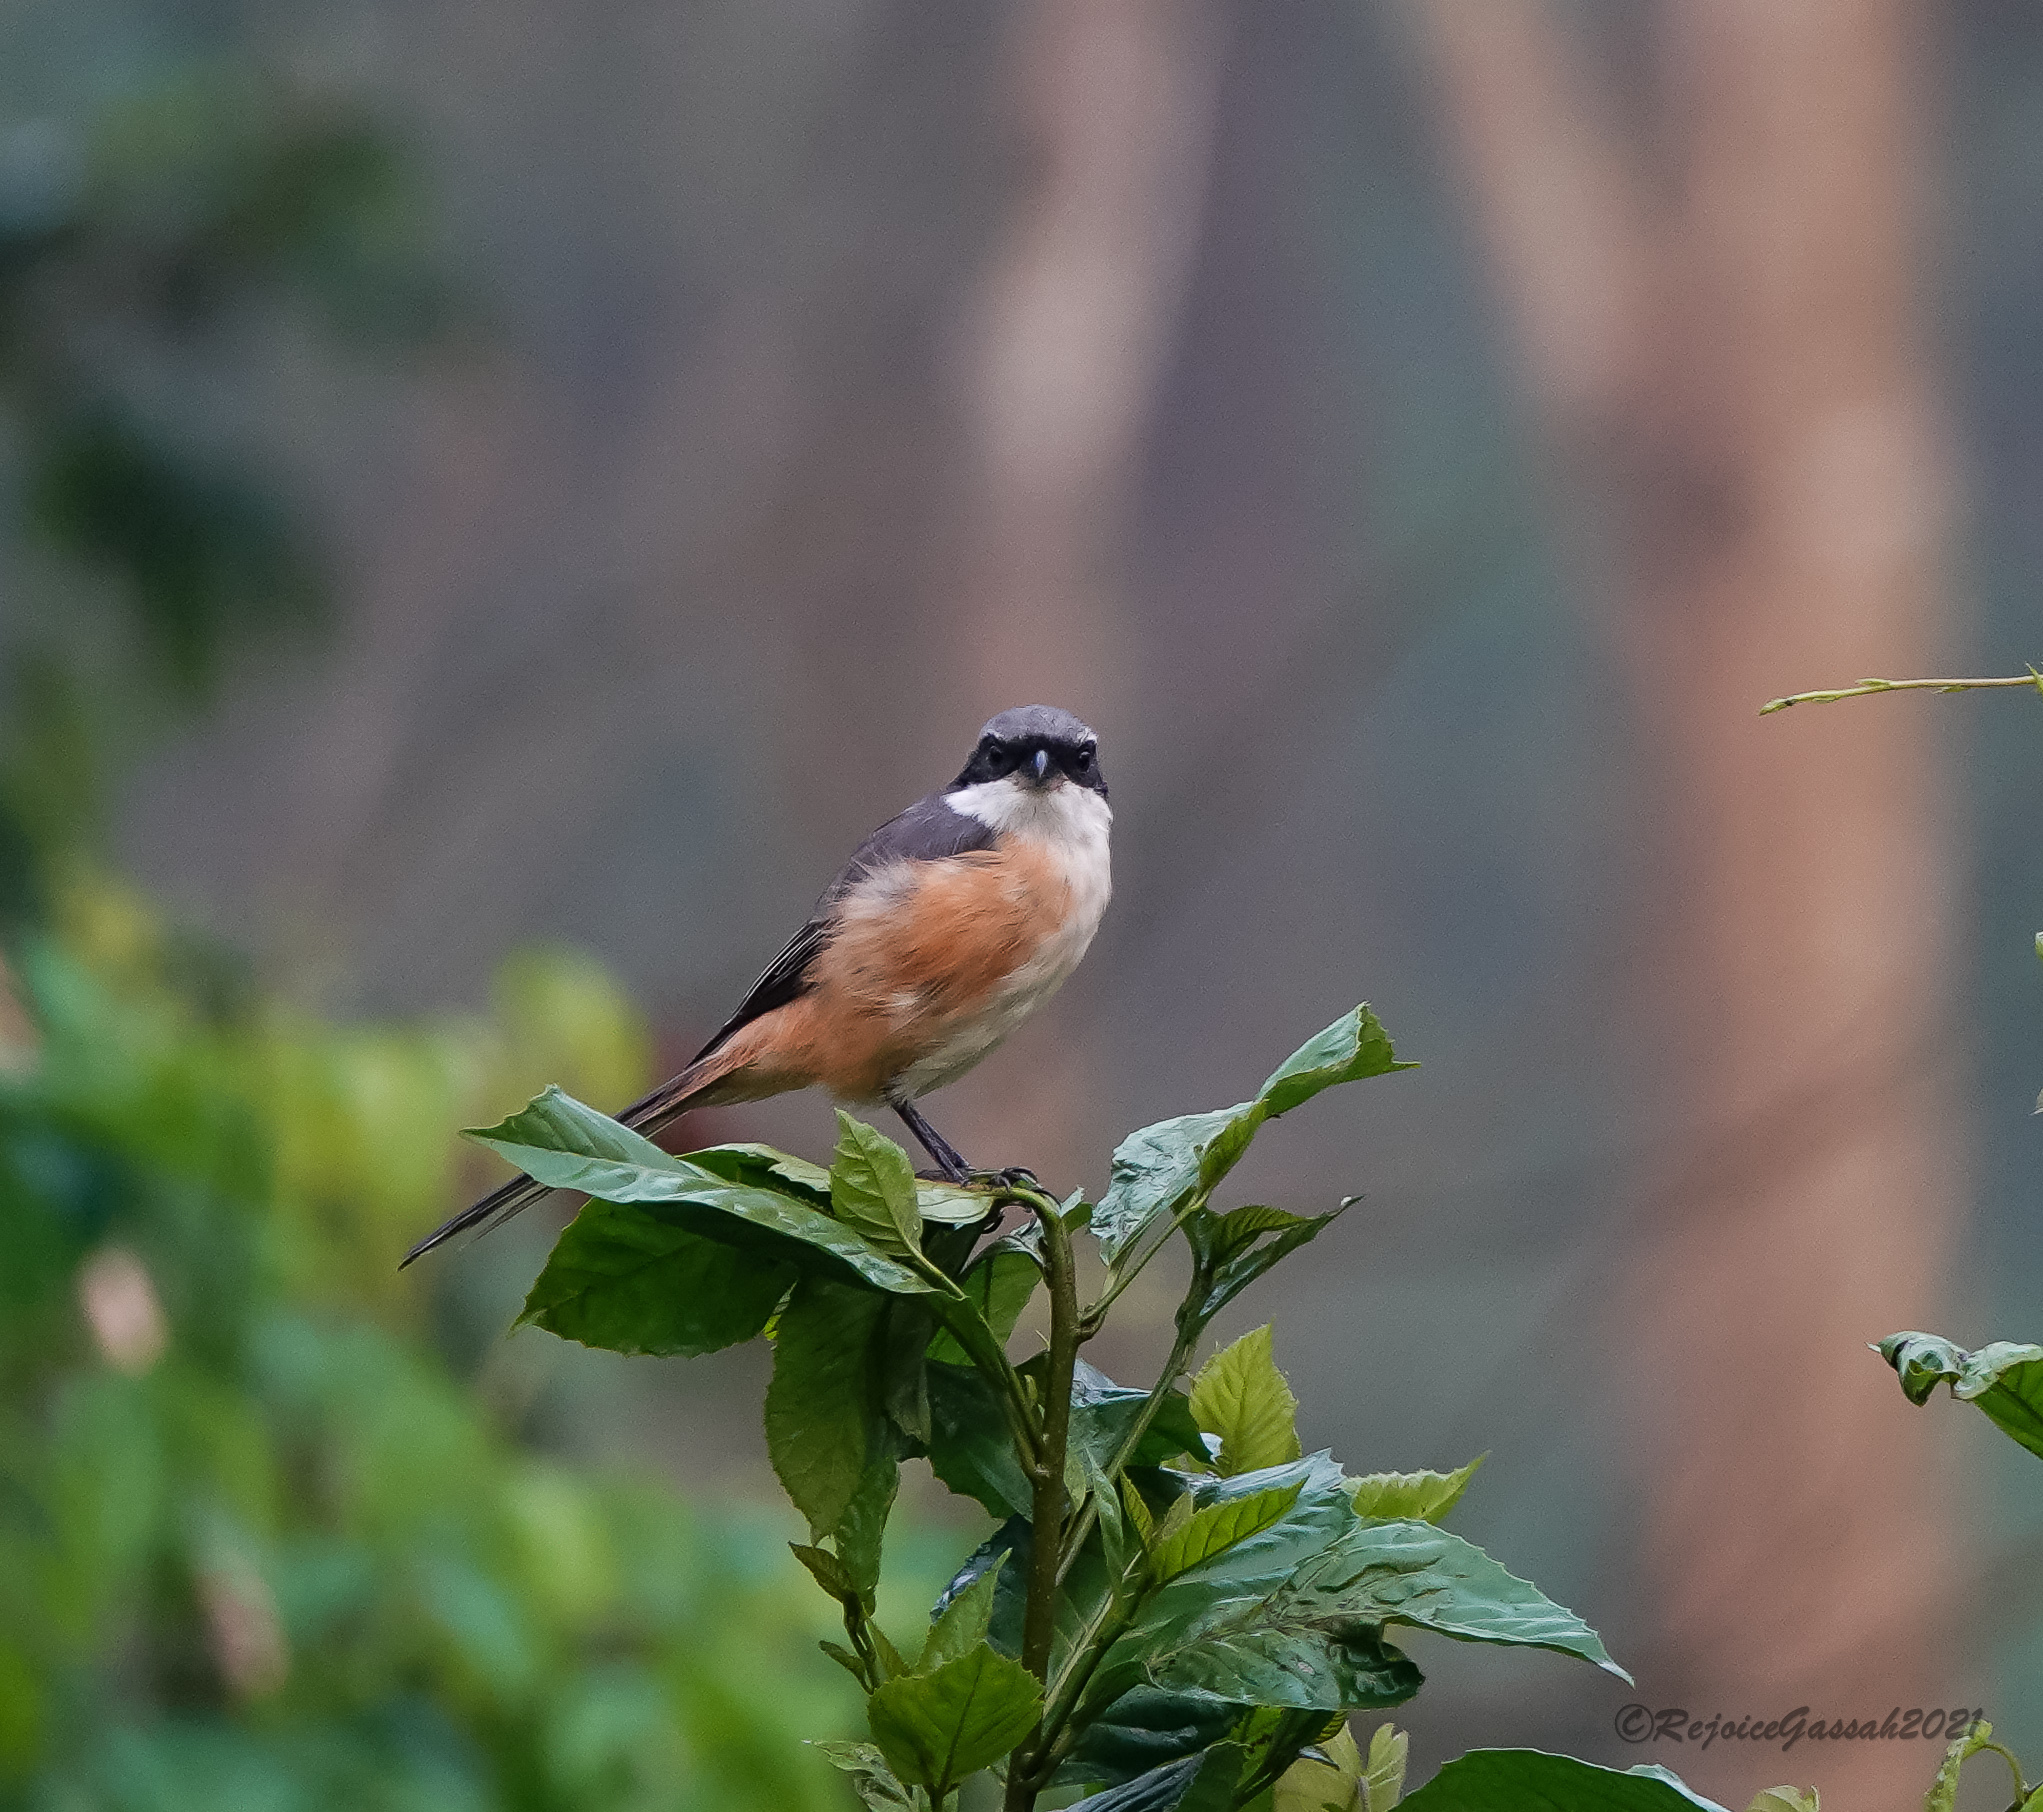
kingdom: Animalia
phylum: Chordata
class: Aves
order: Passeriformes
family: Laniidae
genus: Lanius
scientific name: Lanius tephronotus
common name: Grey-backed shrike
